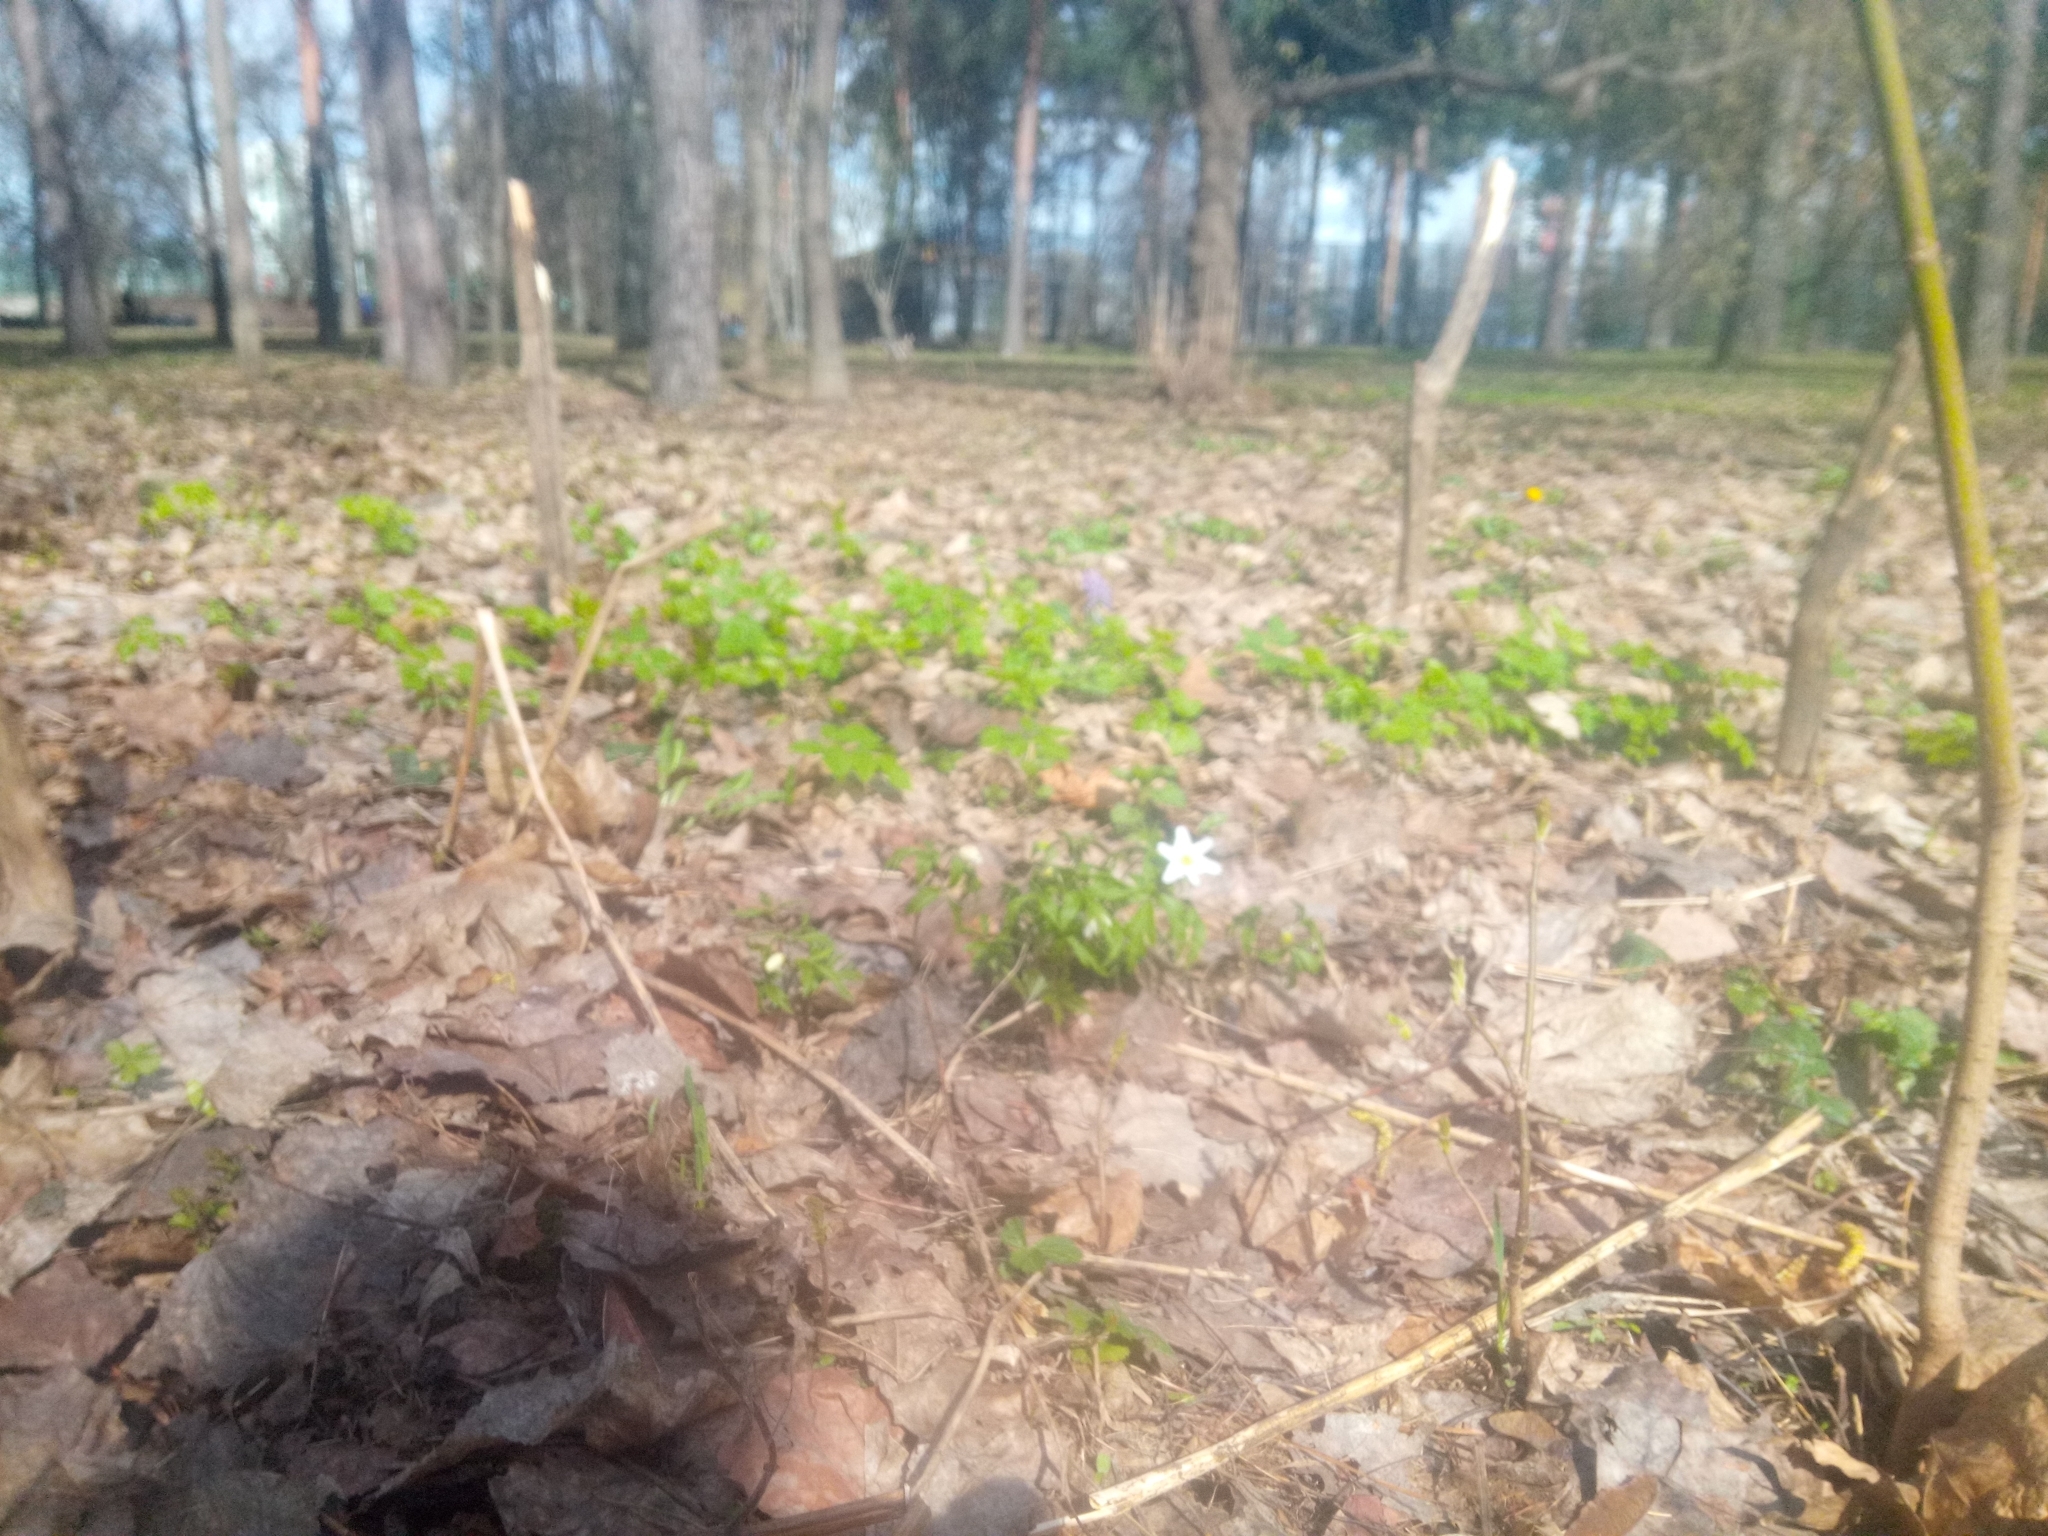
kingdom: Plantae
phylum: Tracheophyta
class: Magnoliopsida
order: Ranunculales
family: Ranunculaceae
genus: Anemone
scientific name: Anemone nemorosa
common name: Wood anemone
